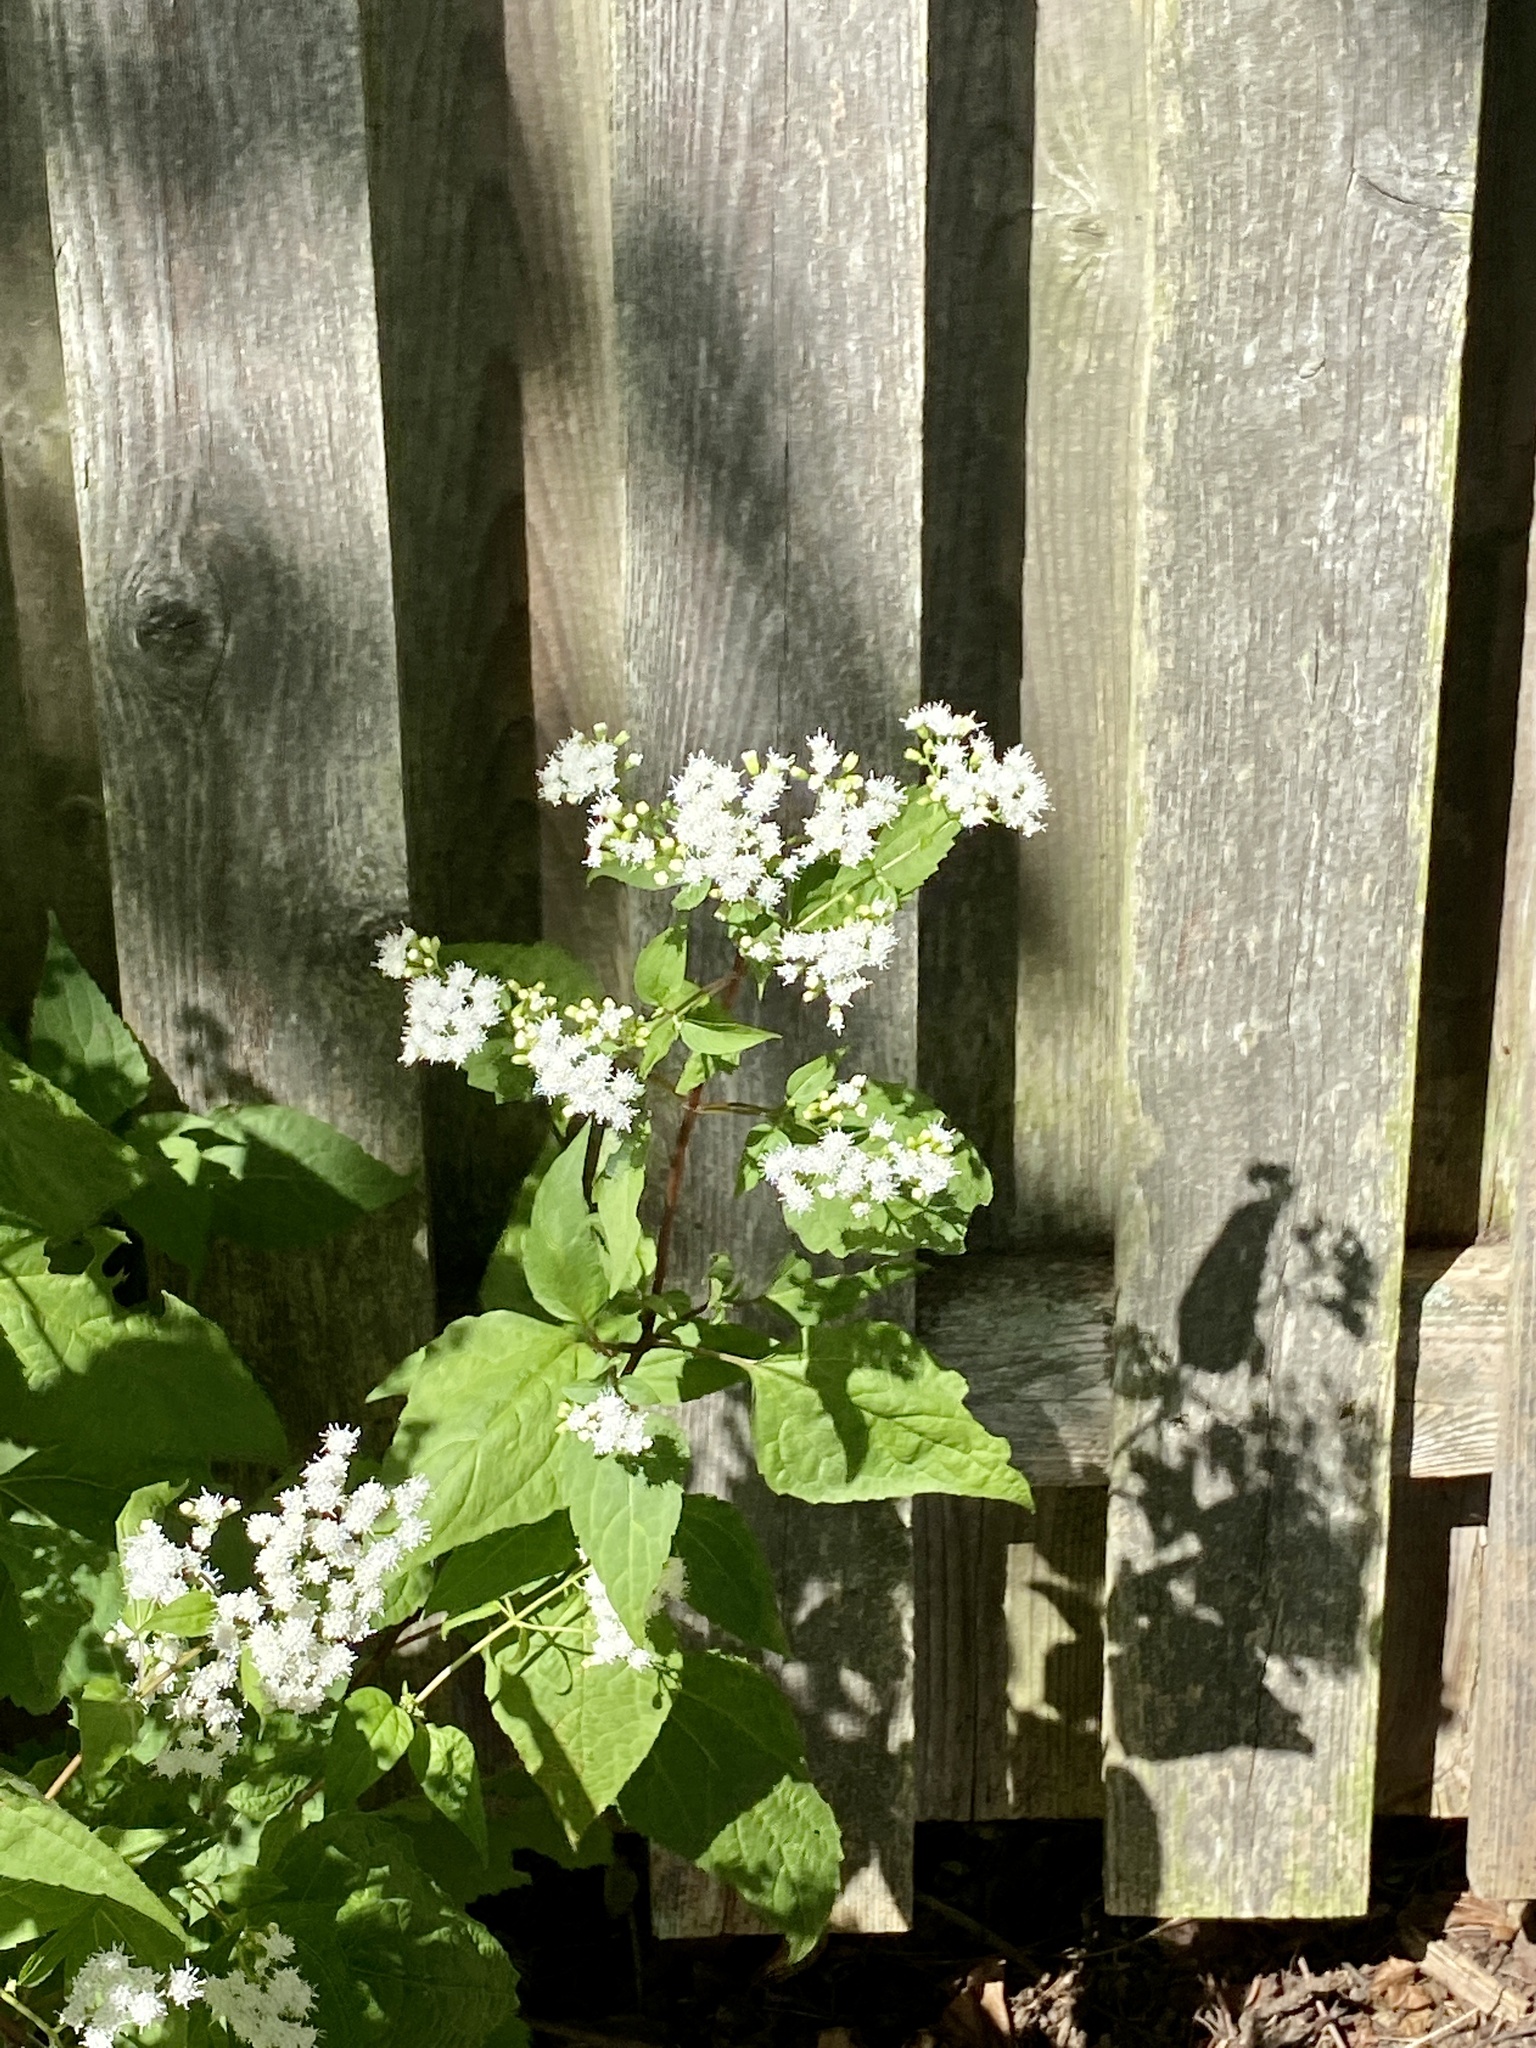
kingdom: Plantae
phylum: Tracheophyta
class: Magnoliopsida
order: Asterales
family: Asteraceae
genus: Ageratina
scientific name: Ageratina altissima
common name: White snakeroot
